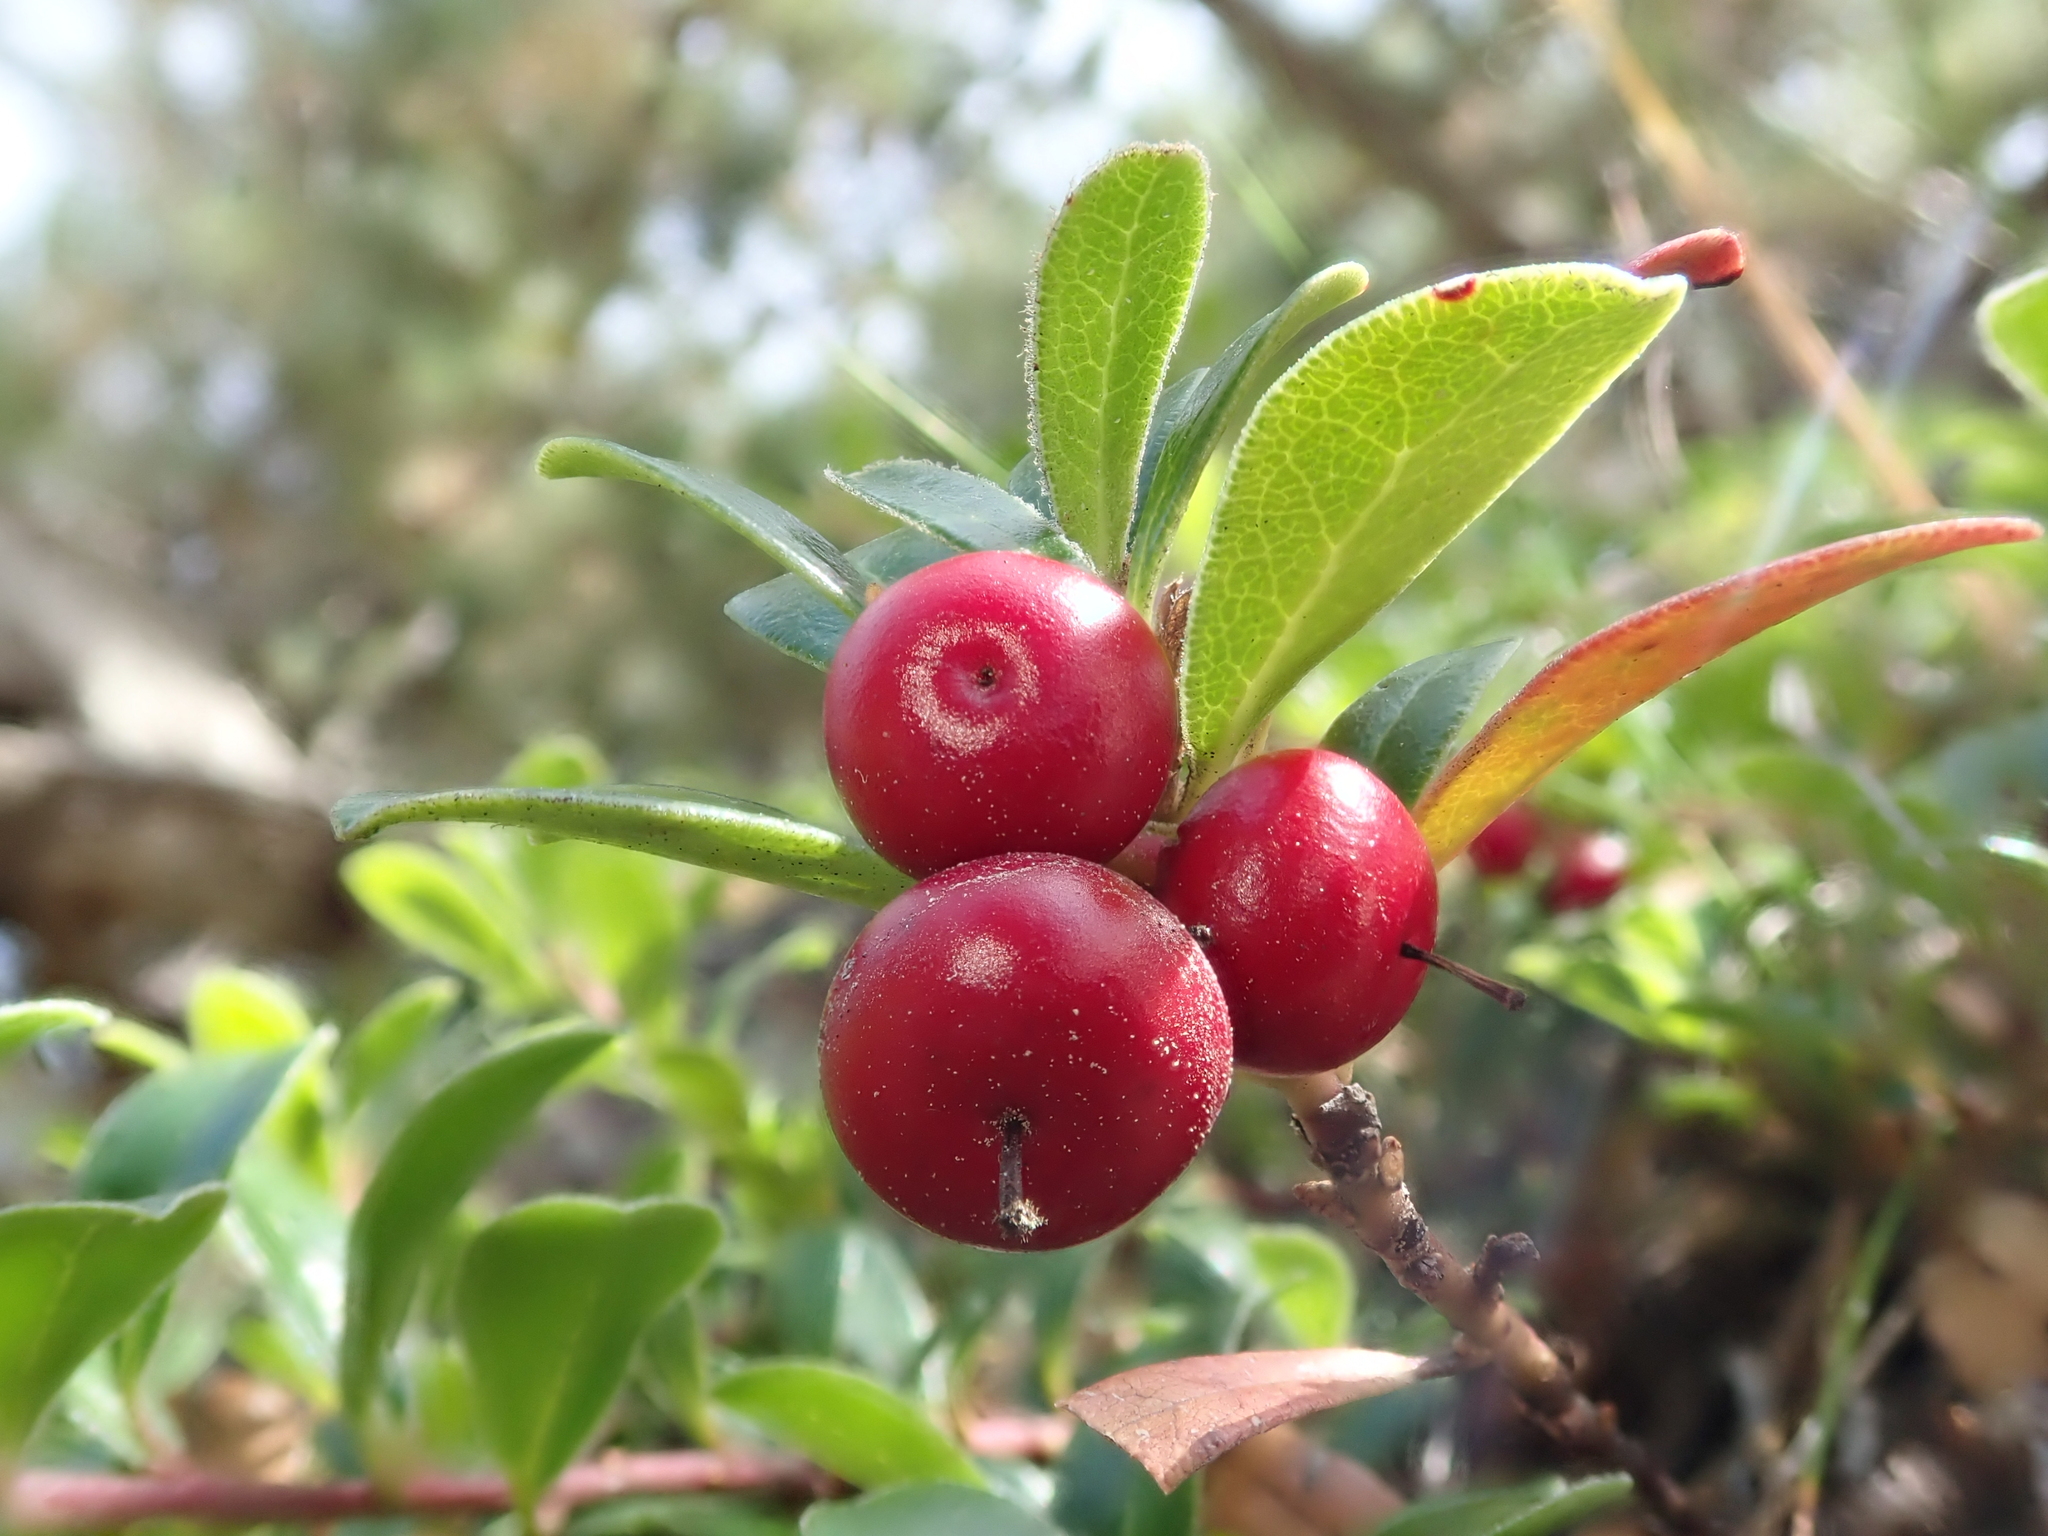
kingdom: Plantae
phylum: Tracheophyta
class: Magnoliopsida
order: Ericales
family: Ericaceae
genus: Arctostaphylos
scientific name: Arctostaphylos uva-ursi
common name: Bearberry
